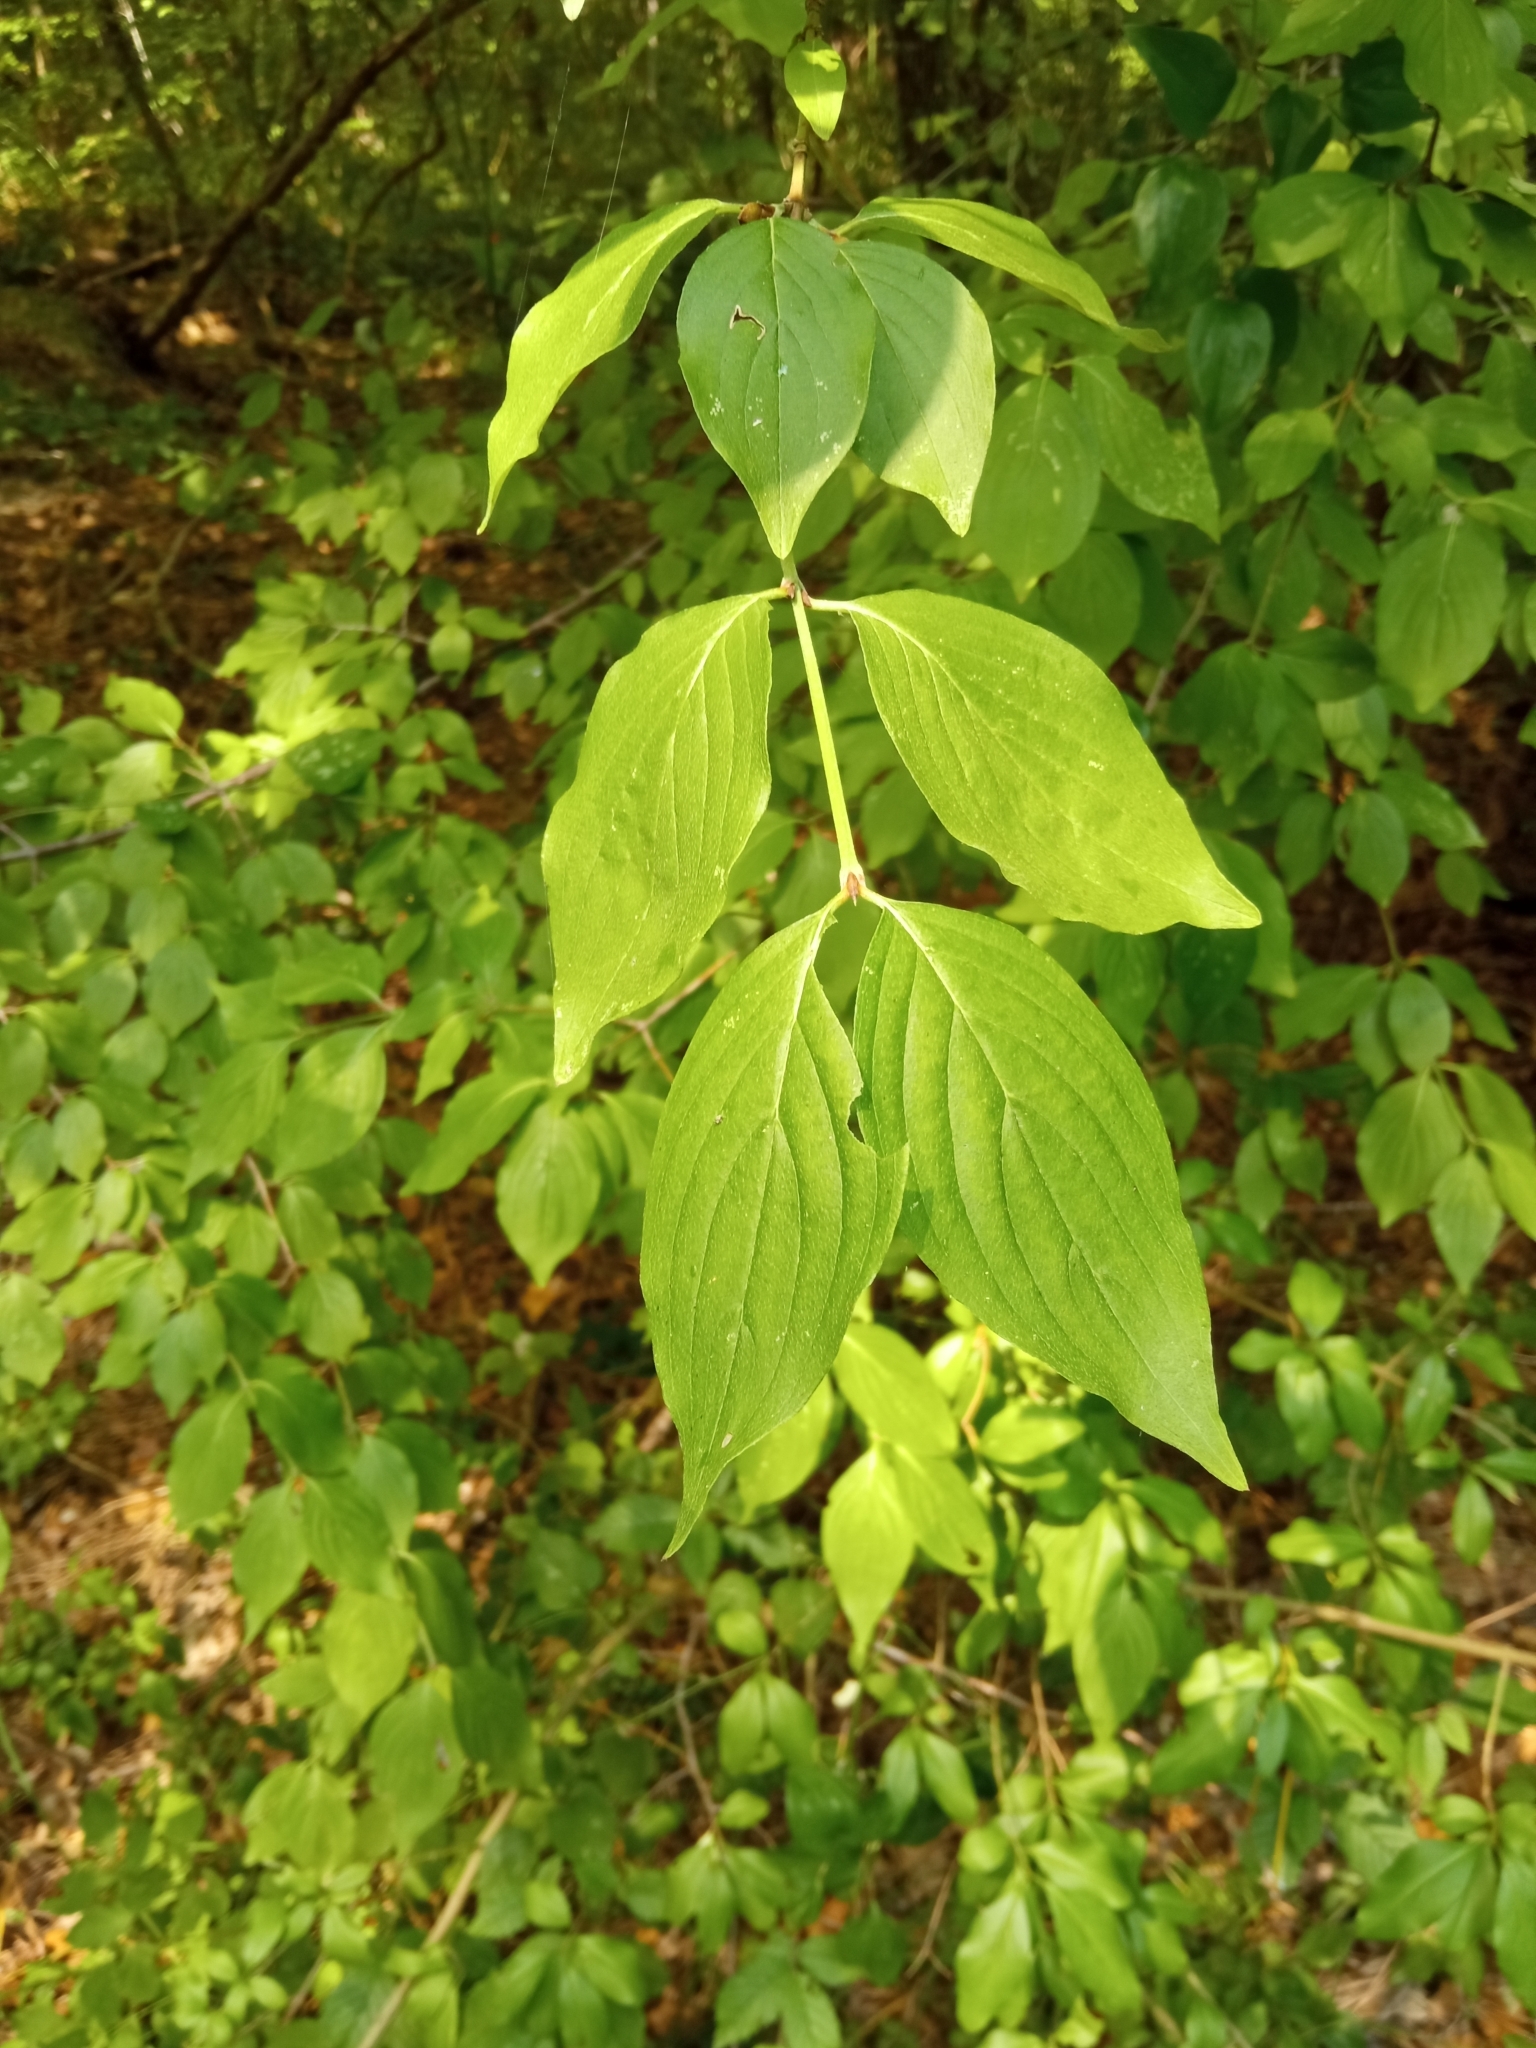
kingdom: Plantae
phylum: Tracheophyta
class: Magnoliopsida
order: Cornales
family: Cornaceae
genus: Cornus
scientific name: Cornus mas
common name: Cornelian-cherry
